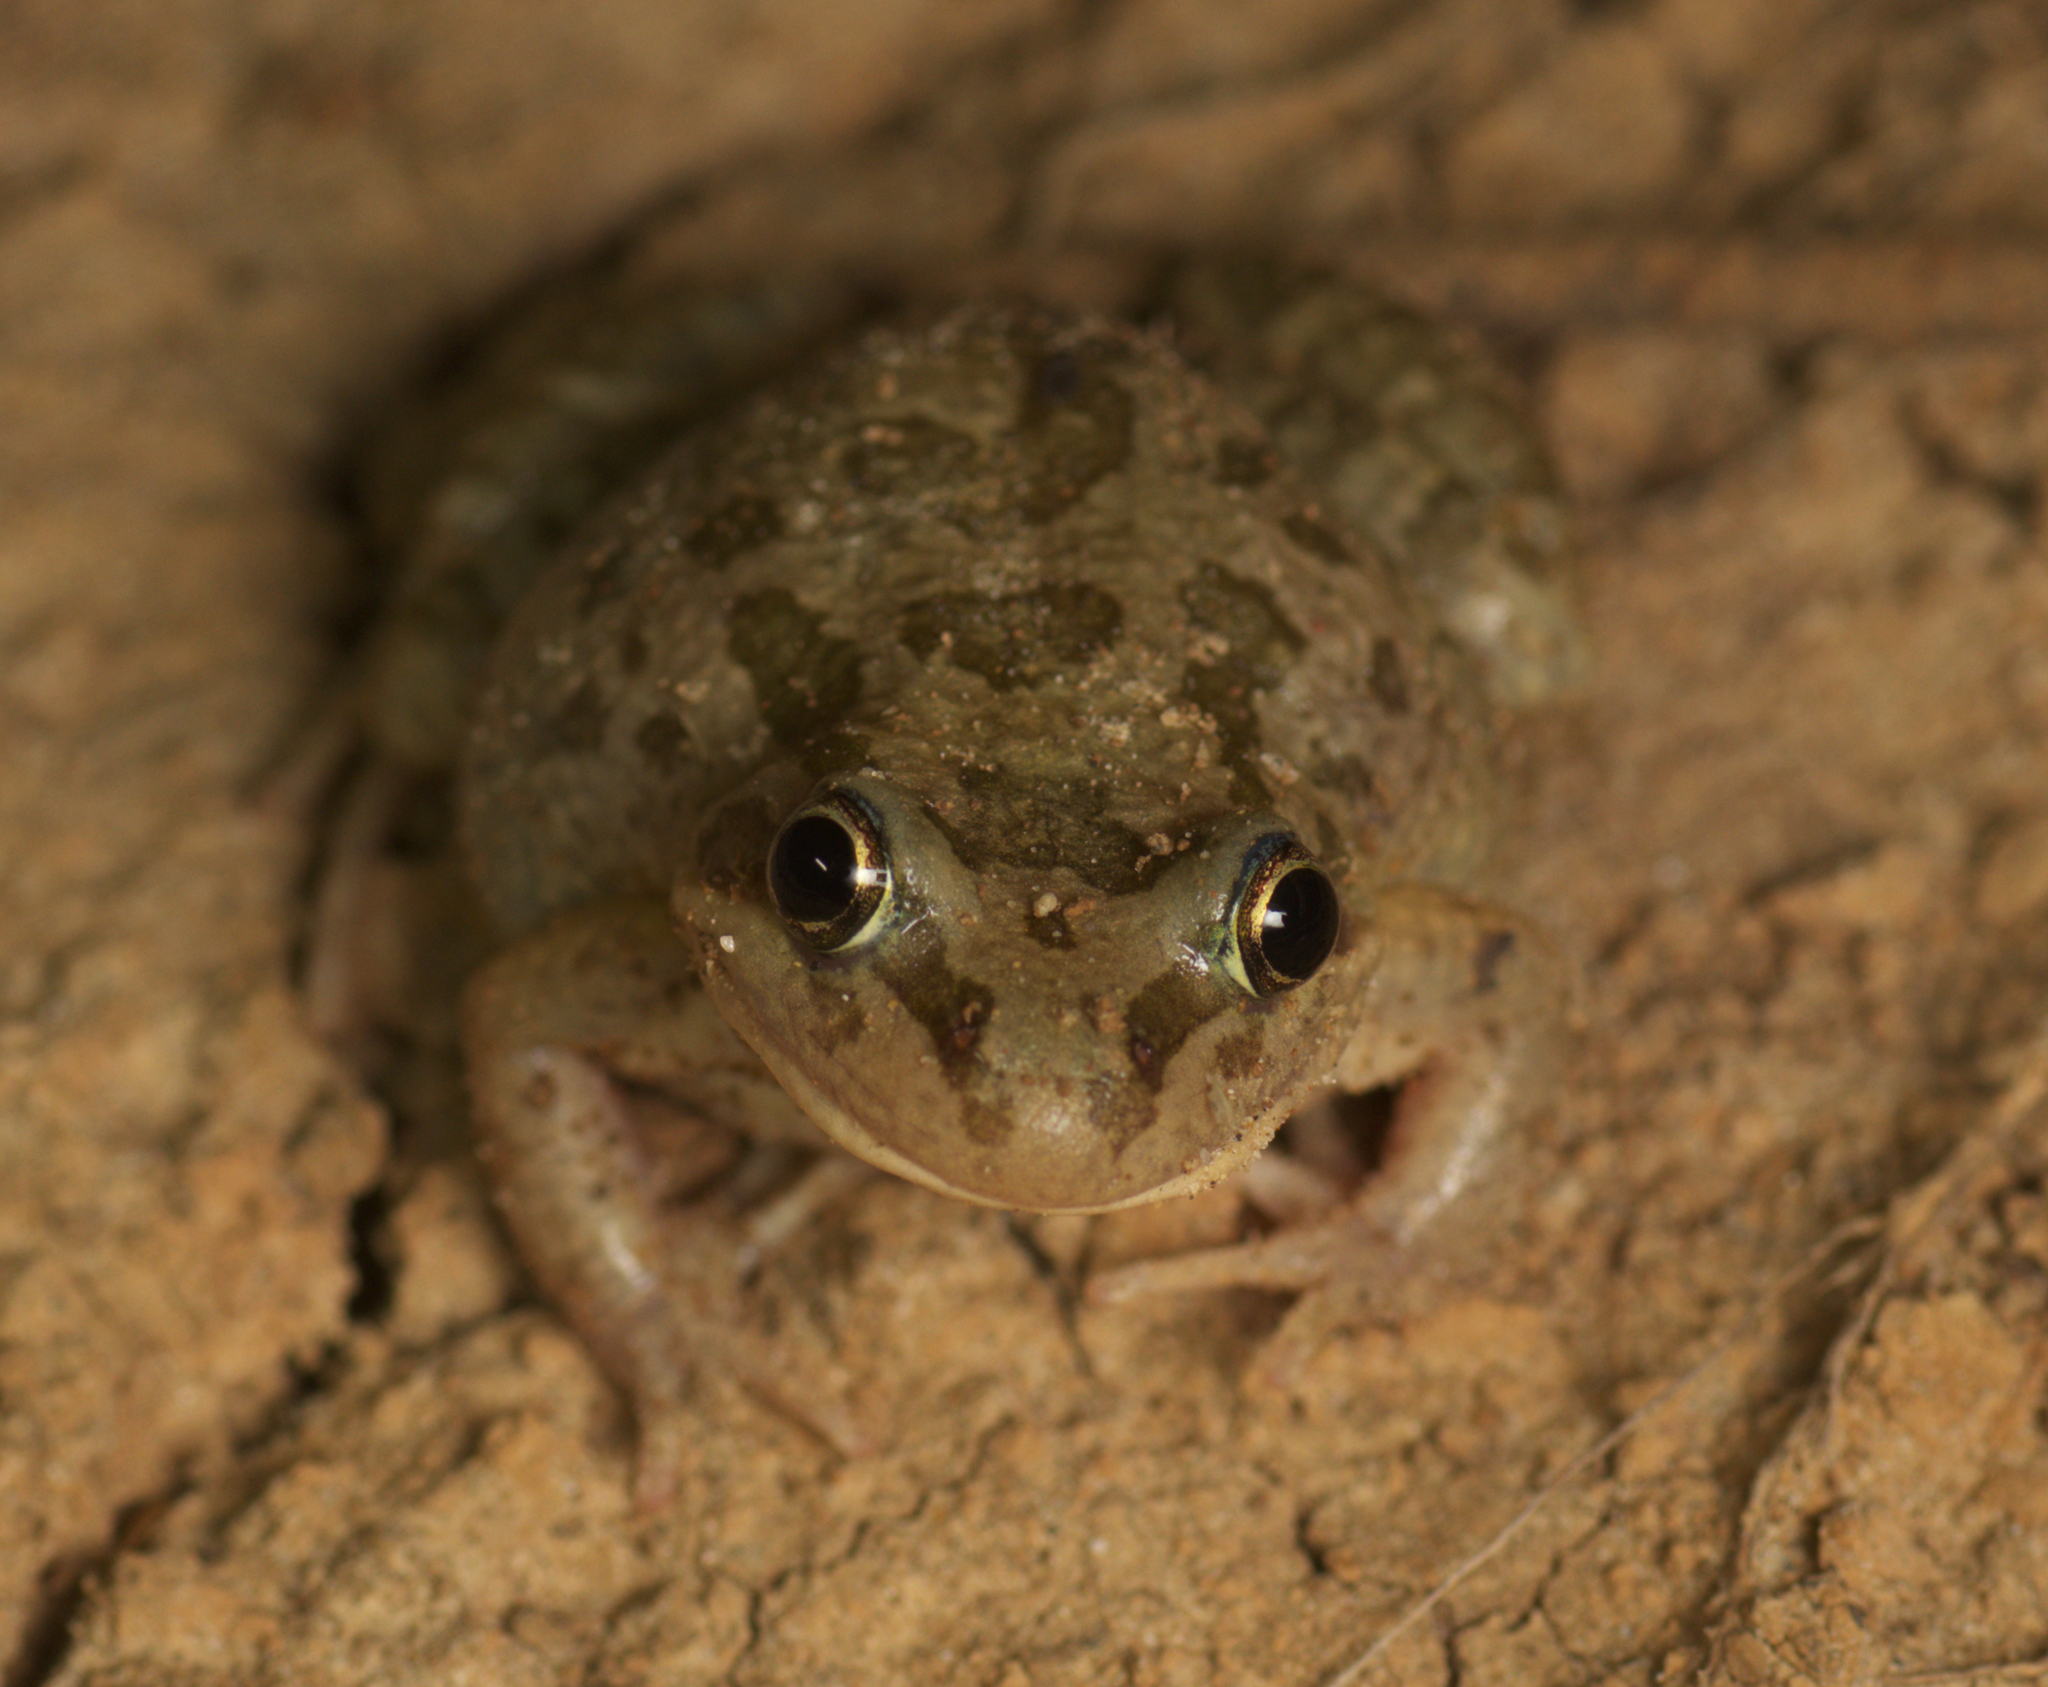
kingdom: Animalia
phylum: Chordata
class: Amphibia
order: Anura
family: Limnodynastidae
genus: Limnodynastes
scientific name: Limnodynastes tasmaniensis
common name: Spotted marsh frog
